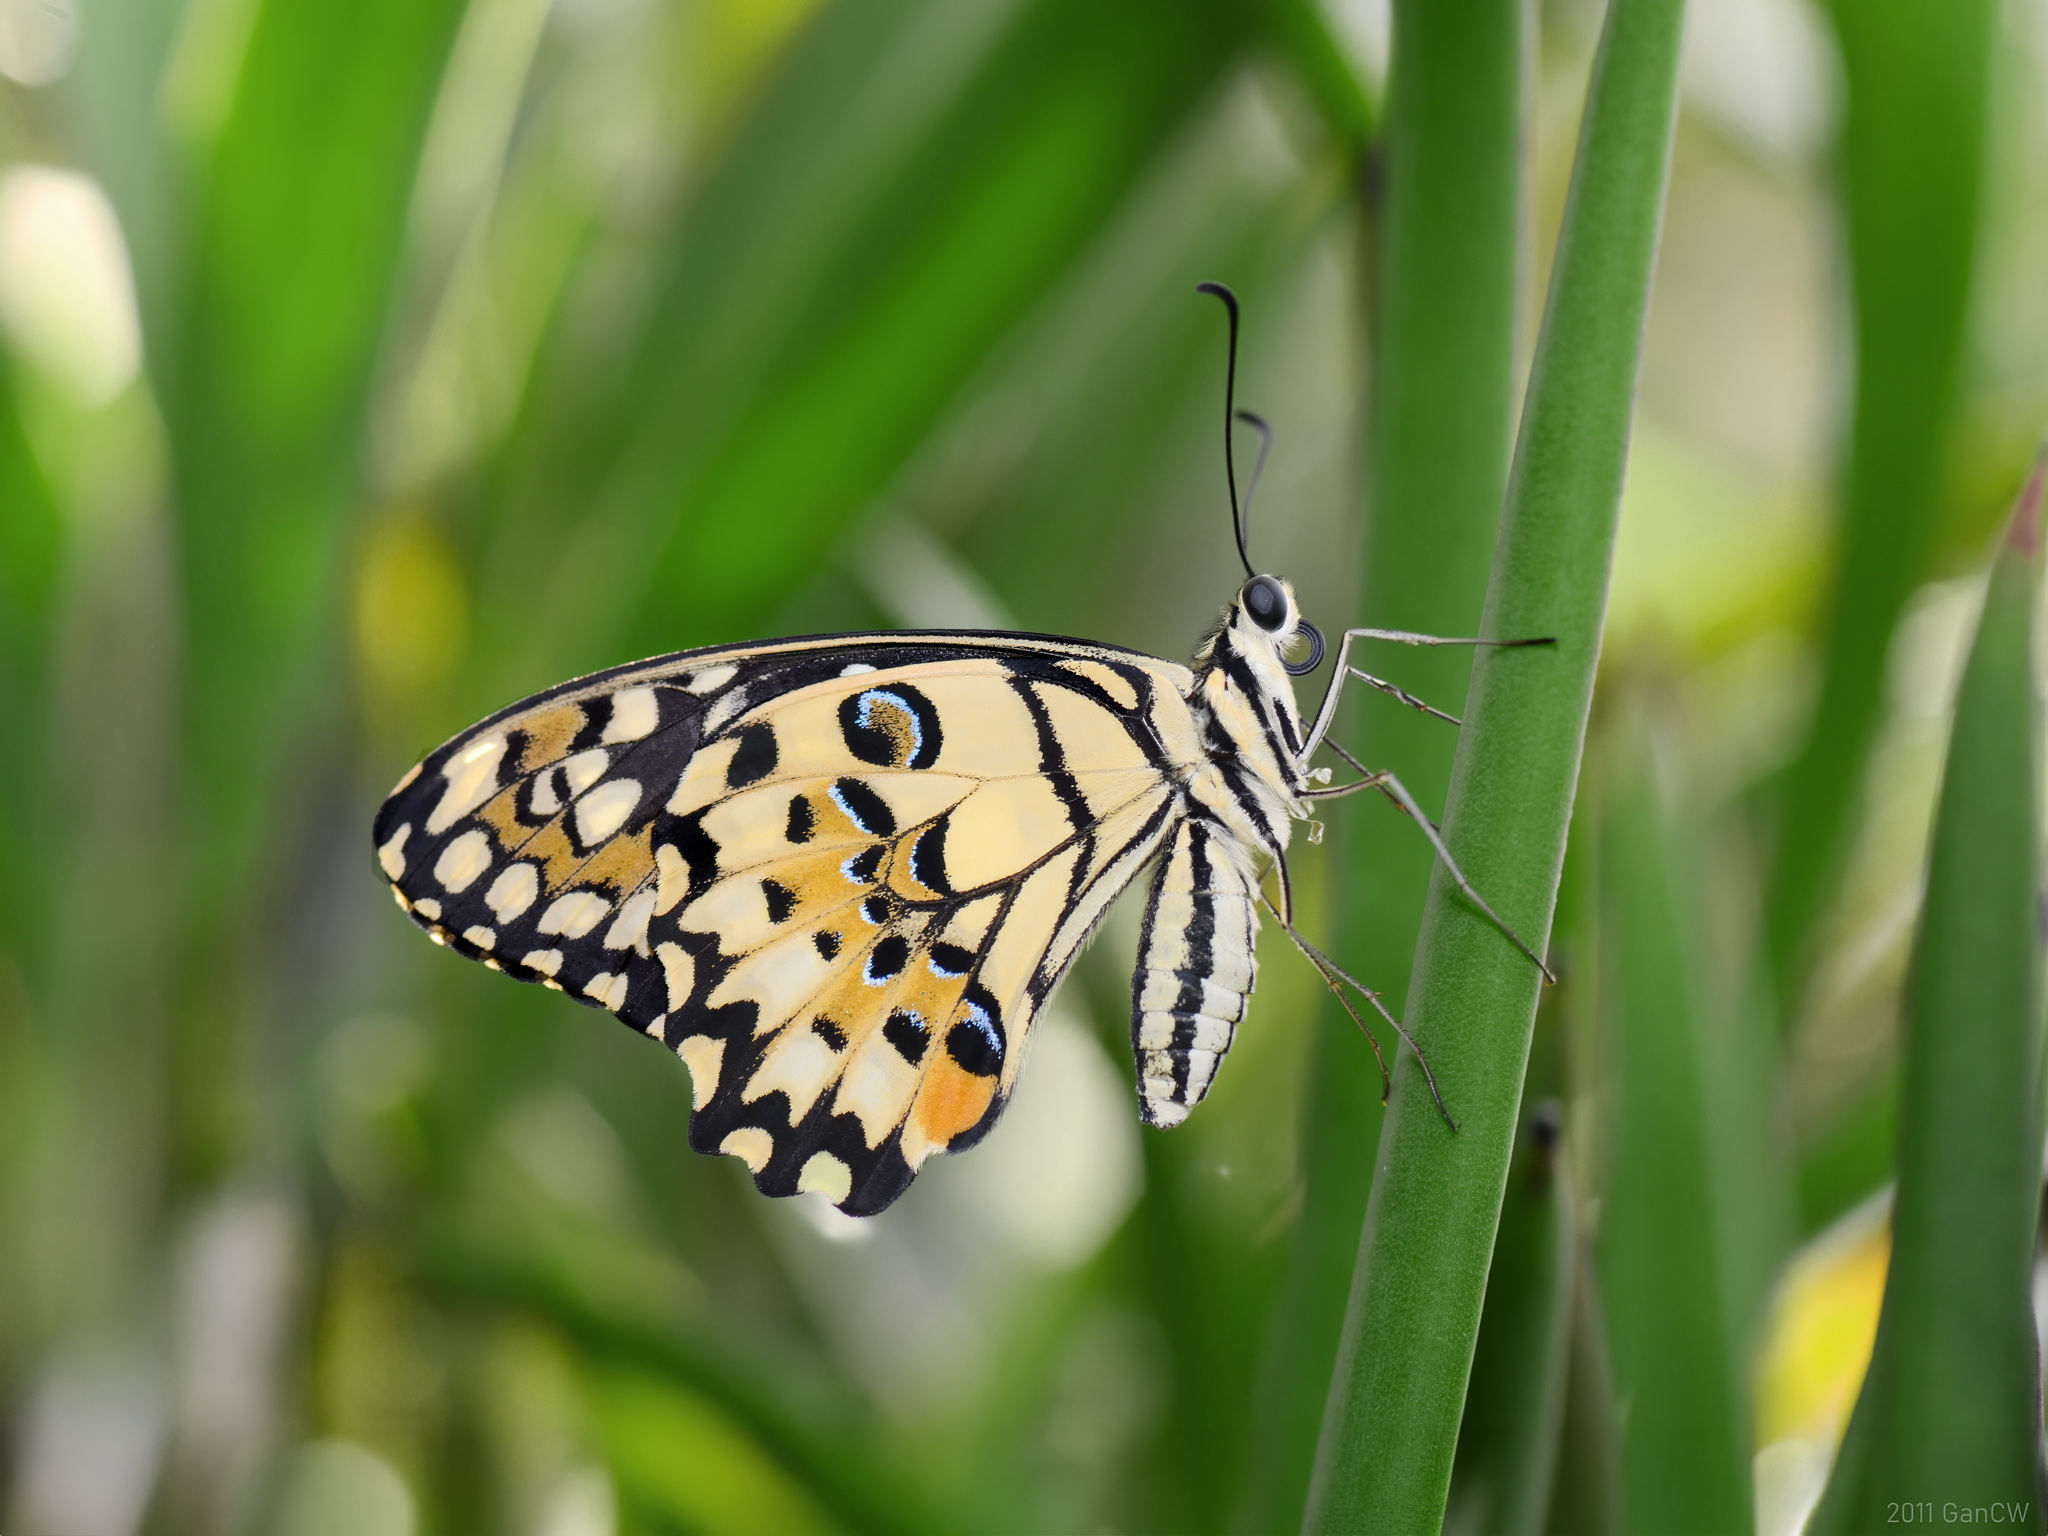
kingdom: Animalia
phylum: Arthropoda
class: Insecta
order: Lepidoptera
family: Papilionidae
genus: Papilio
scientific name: Papilio demoleus
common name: Lime butterfly
